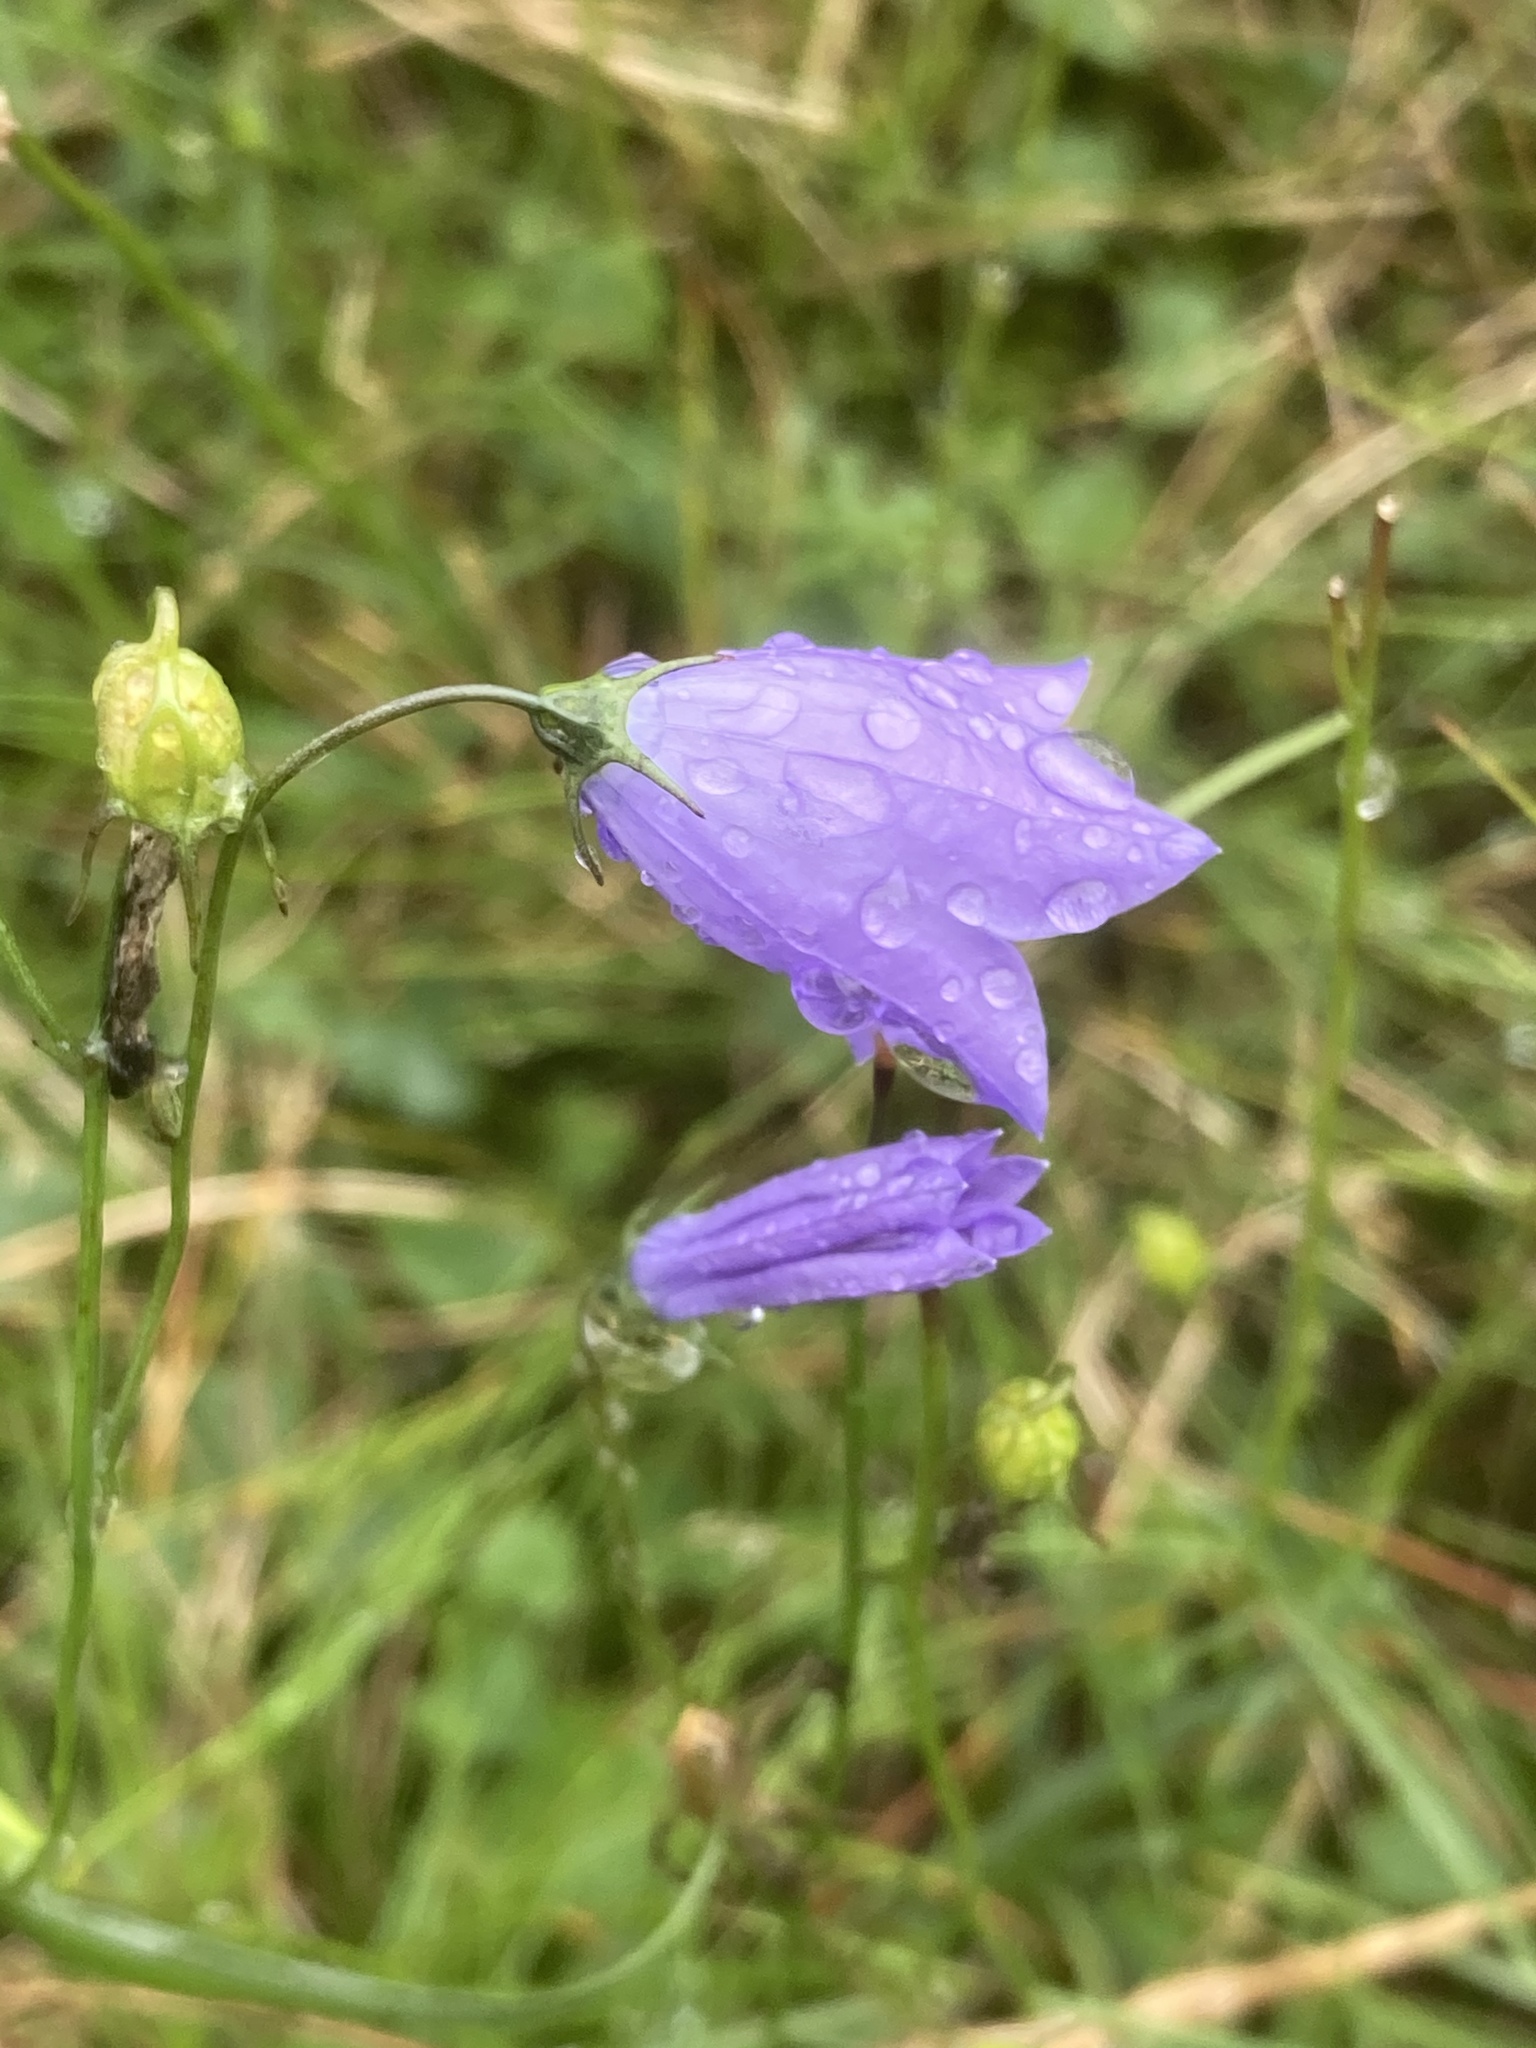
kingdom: Plantae
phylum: Tracheophyta
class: Magnoliopsida
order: Asterales
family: Campanulaceae
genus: Campanula
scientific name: Campanula rotundifolia
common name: Harebell
